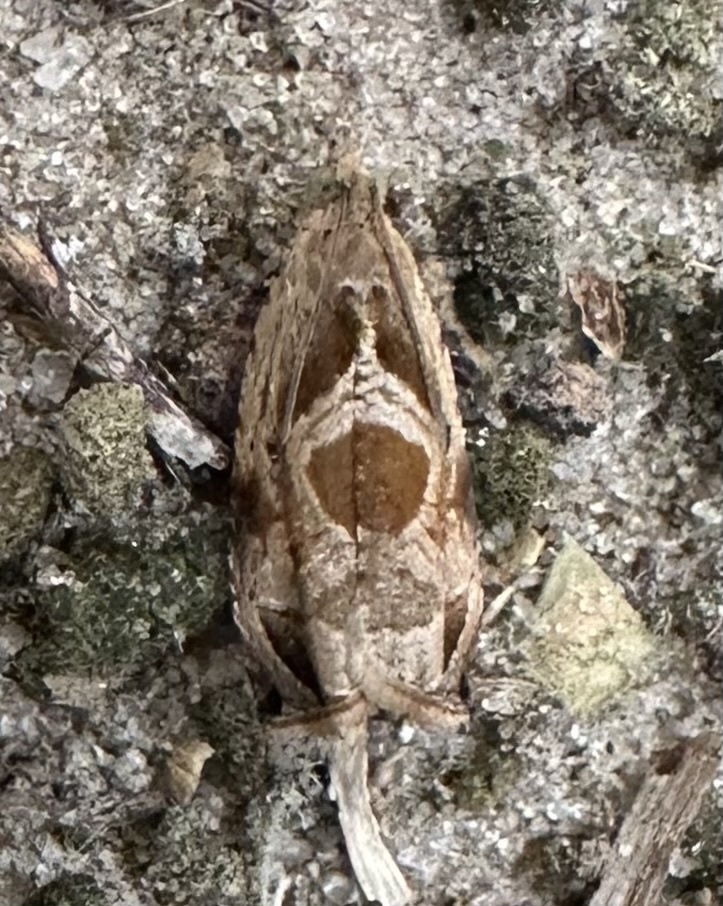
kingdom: Animalia
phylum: Arthropoda
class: Insecta
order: Lepidoptera
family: Tortricidae
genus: Metendothenia
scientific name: Metendothenia balanacma
